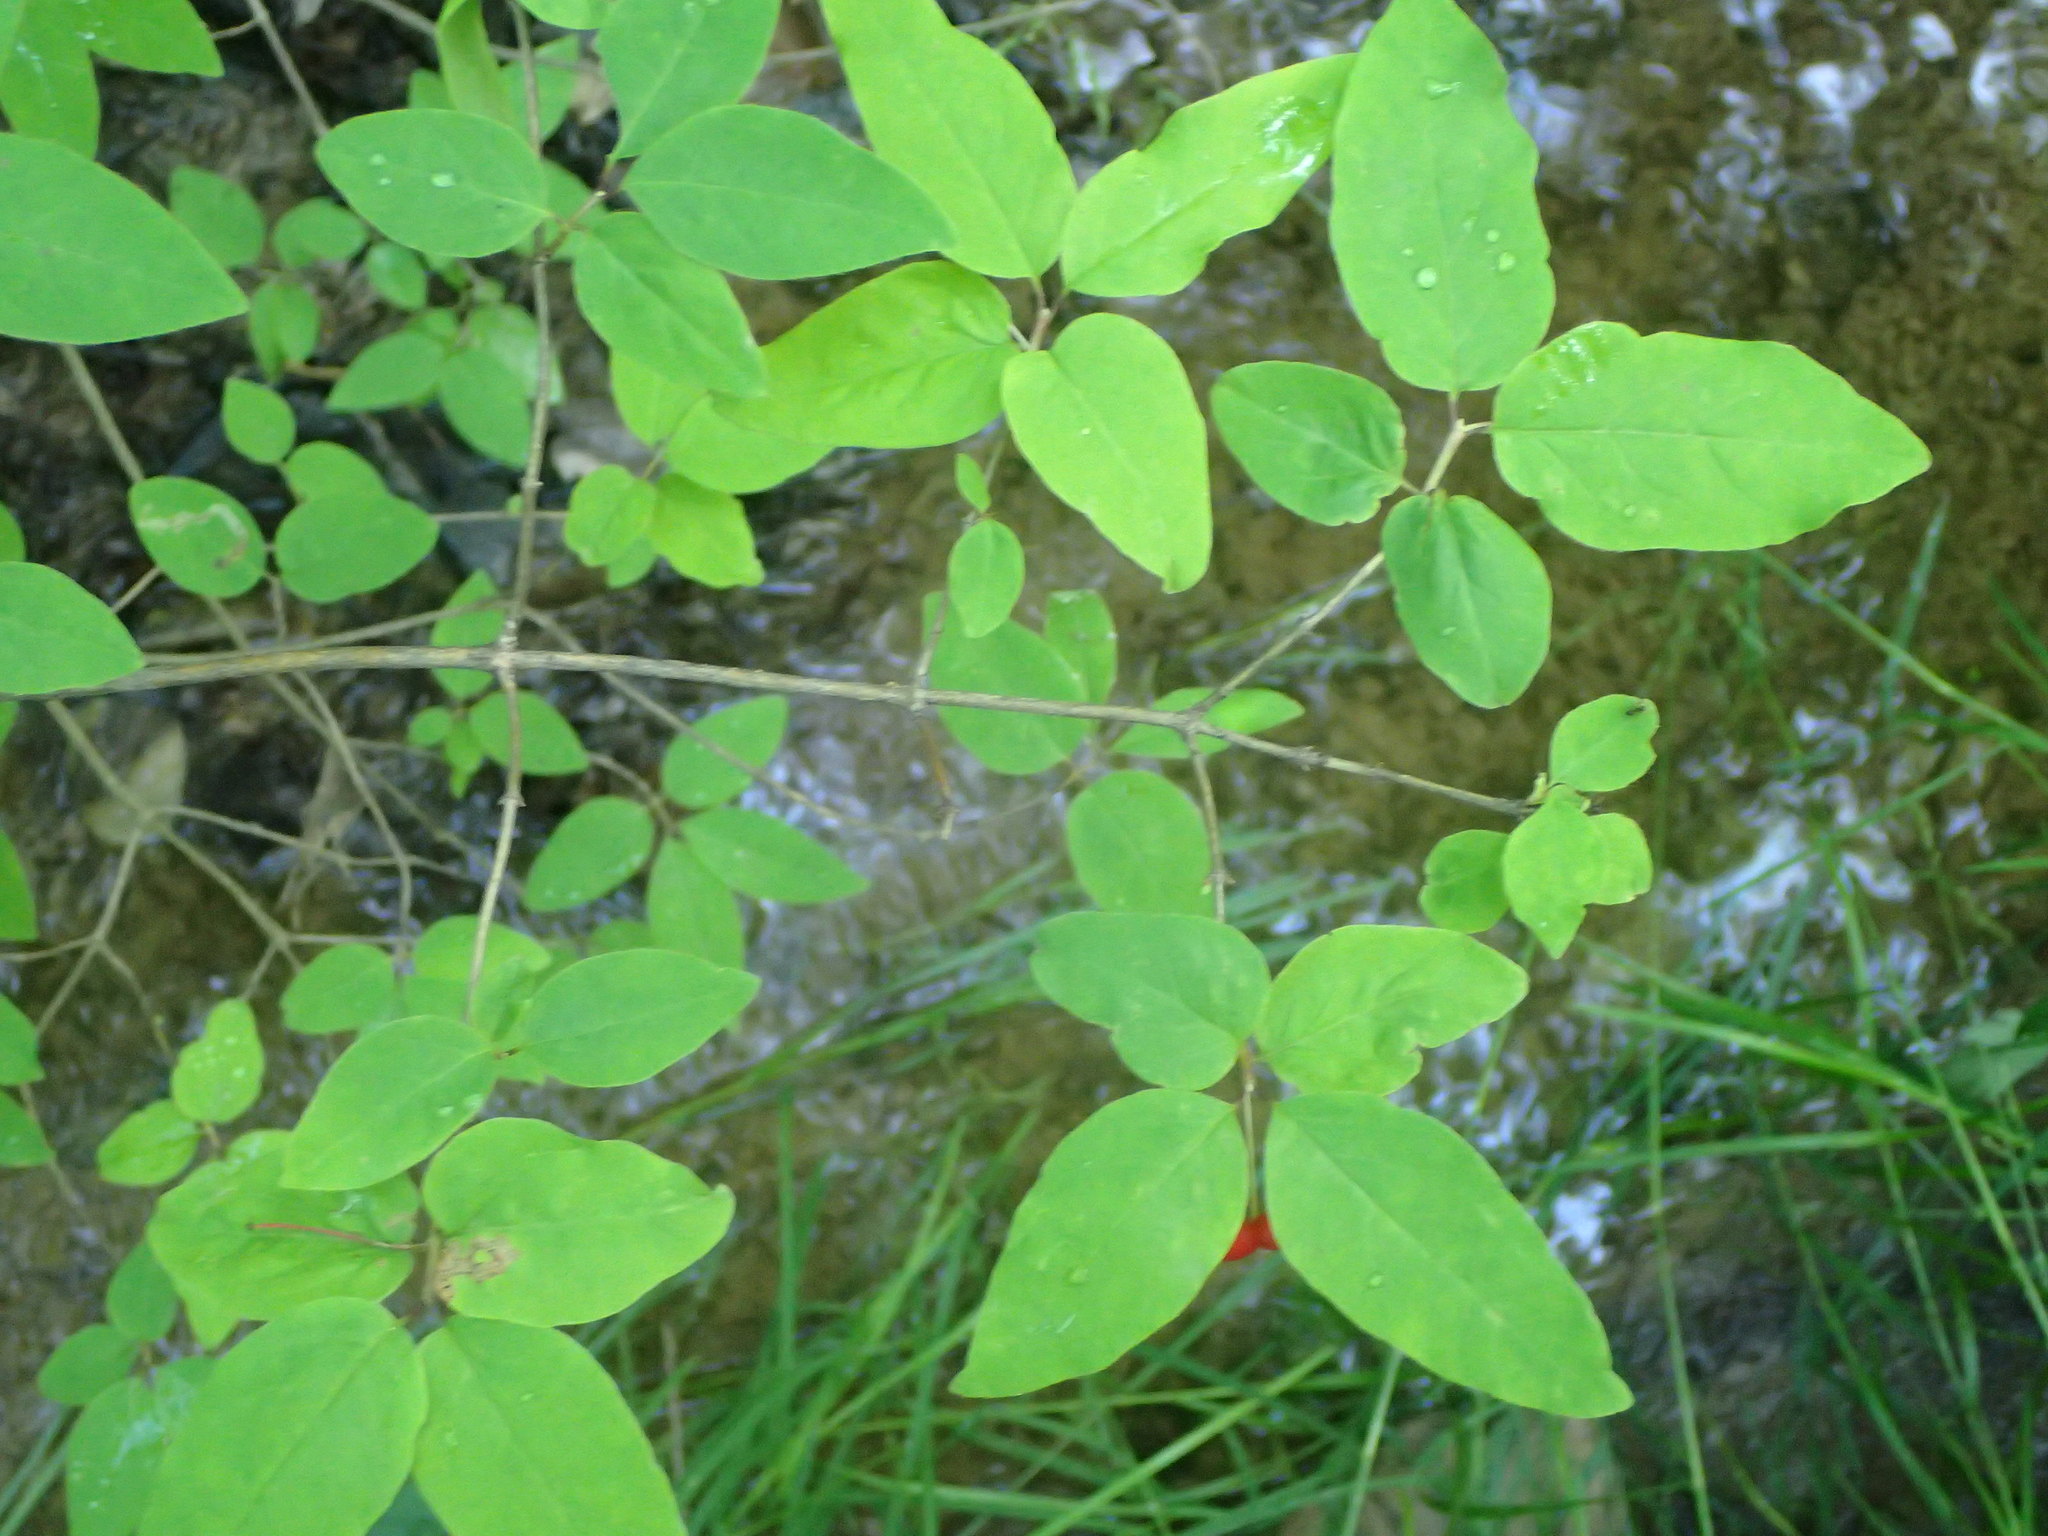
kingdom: Plantae
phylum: Tracheophyta
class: Magnoliopsida
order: Dipsacales
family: Caprifoliaceae
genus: Lonicera
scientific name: Lonicera canadensis
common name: American fly-honeysuckle
